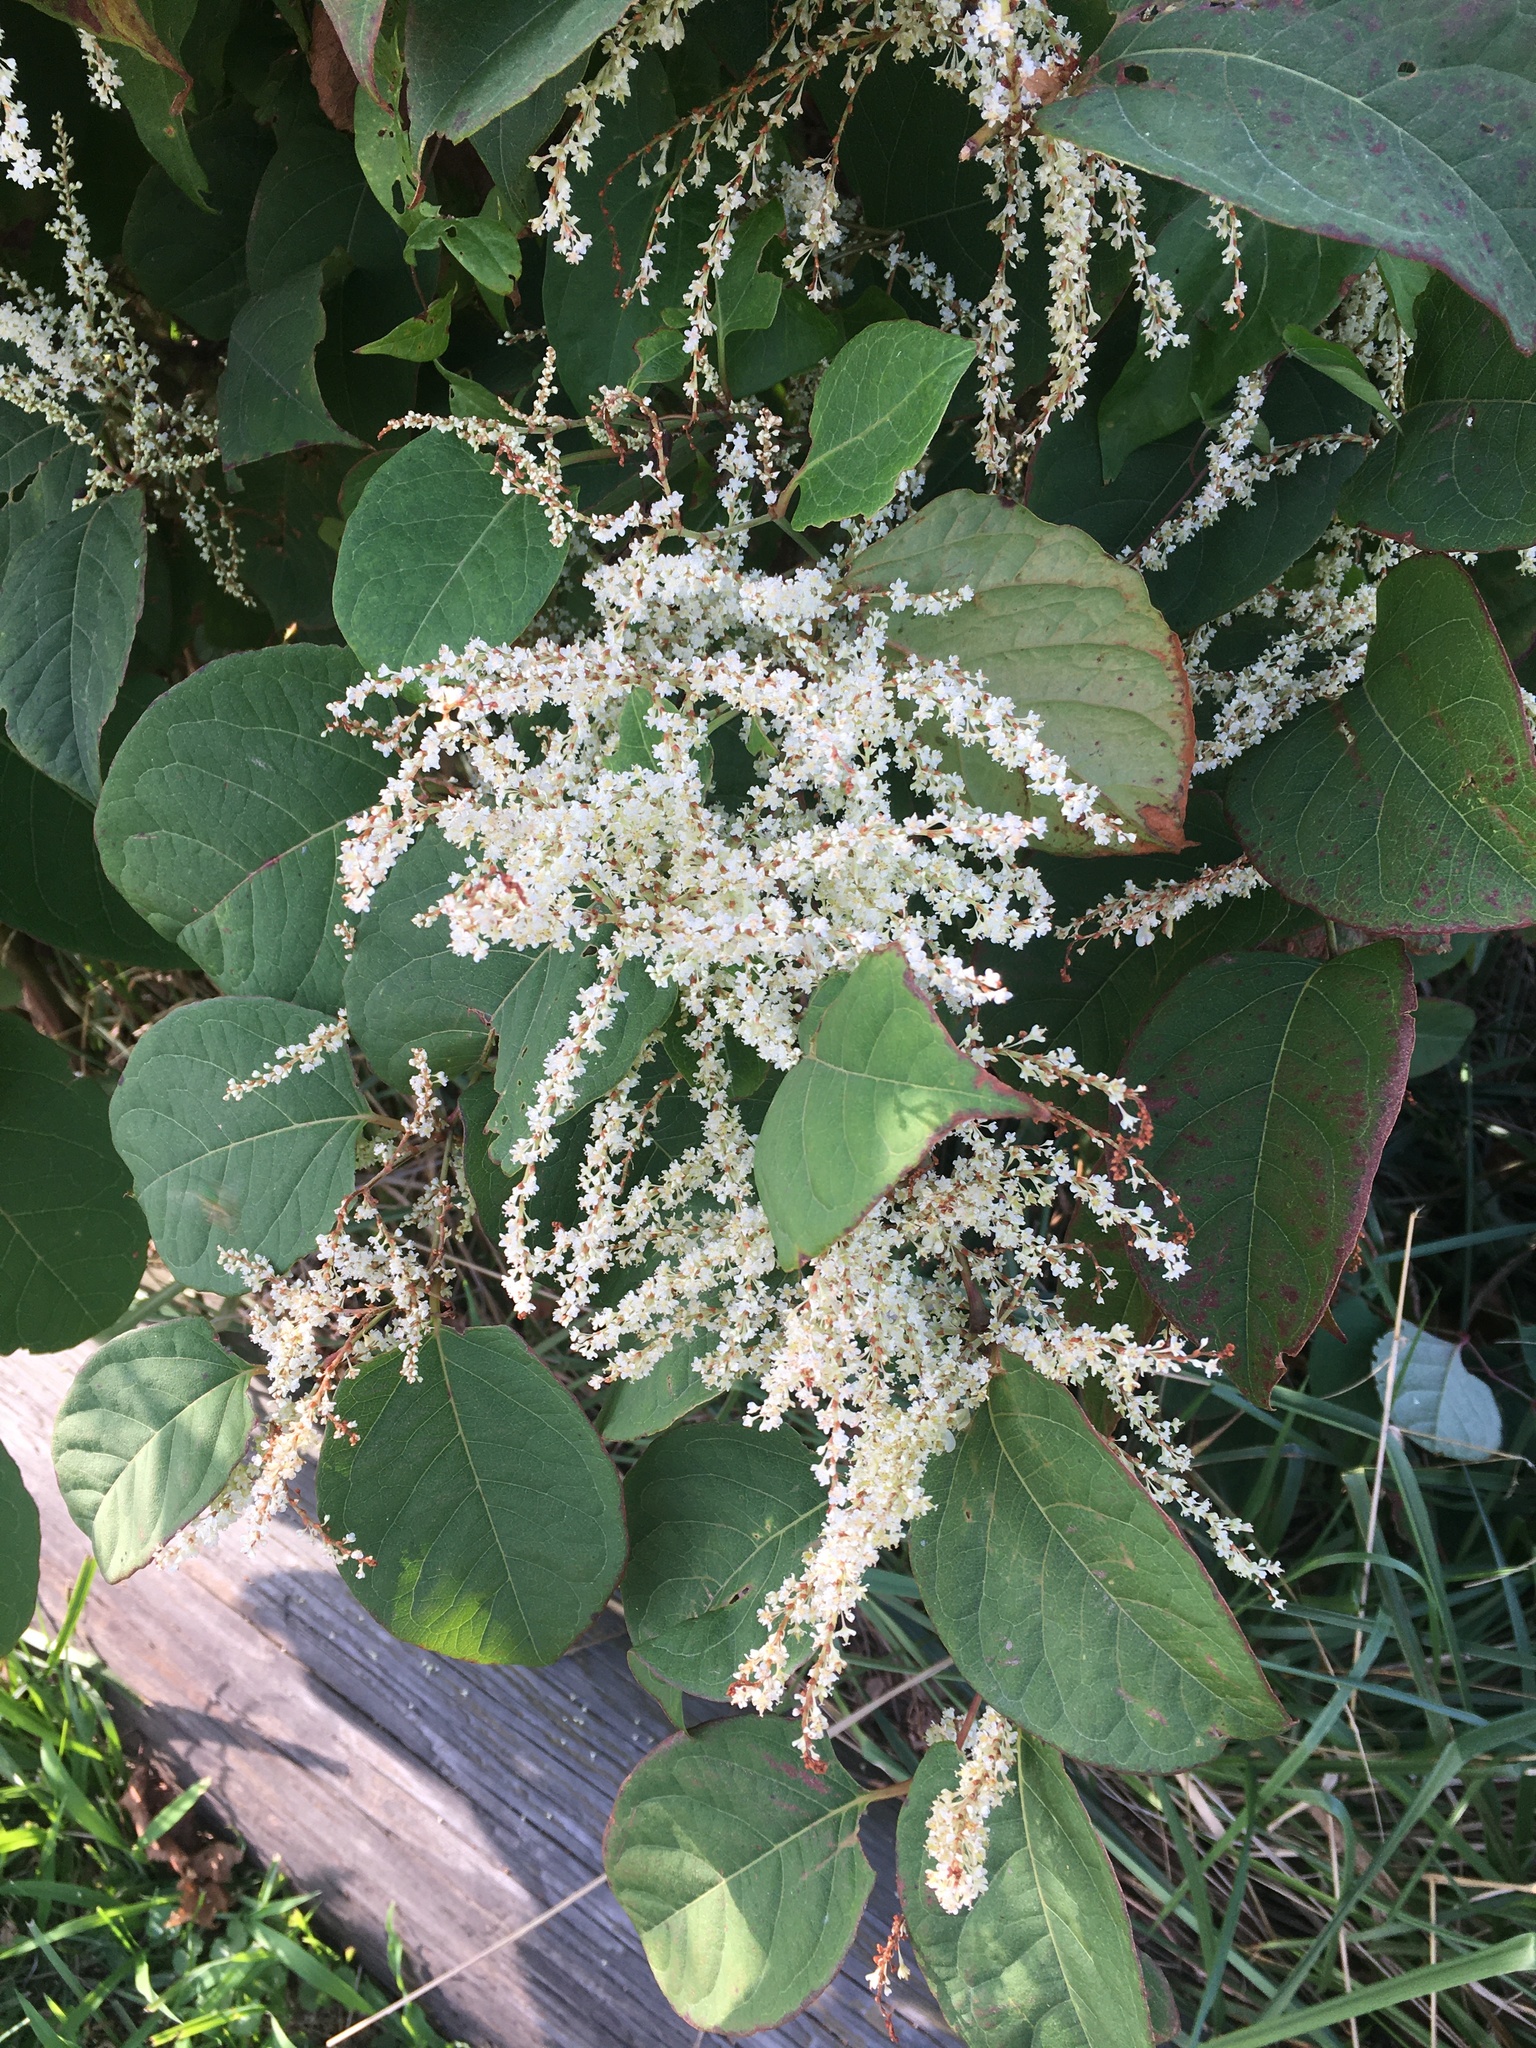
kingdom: Plantae
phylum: Tracheophyta
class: Magnoliopsida
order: Caryophyllales
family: Polygonaceae
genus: Reynoutria
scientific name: Reynoutria japonica
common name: Japanese knotweed
